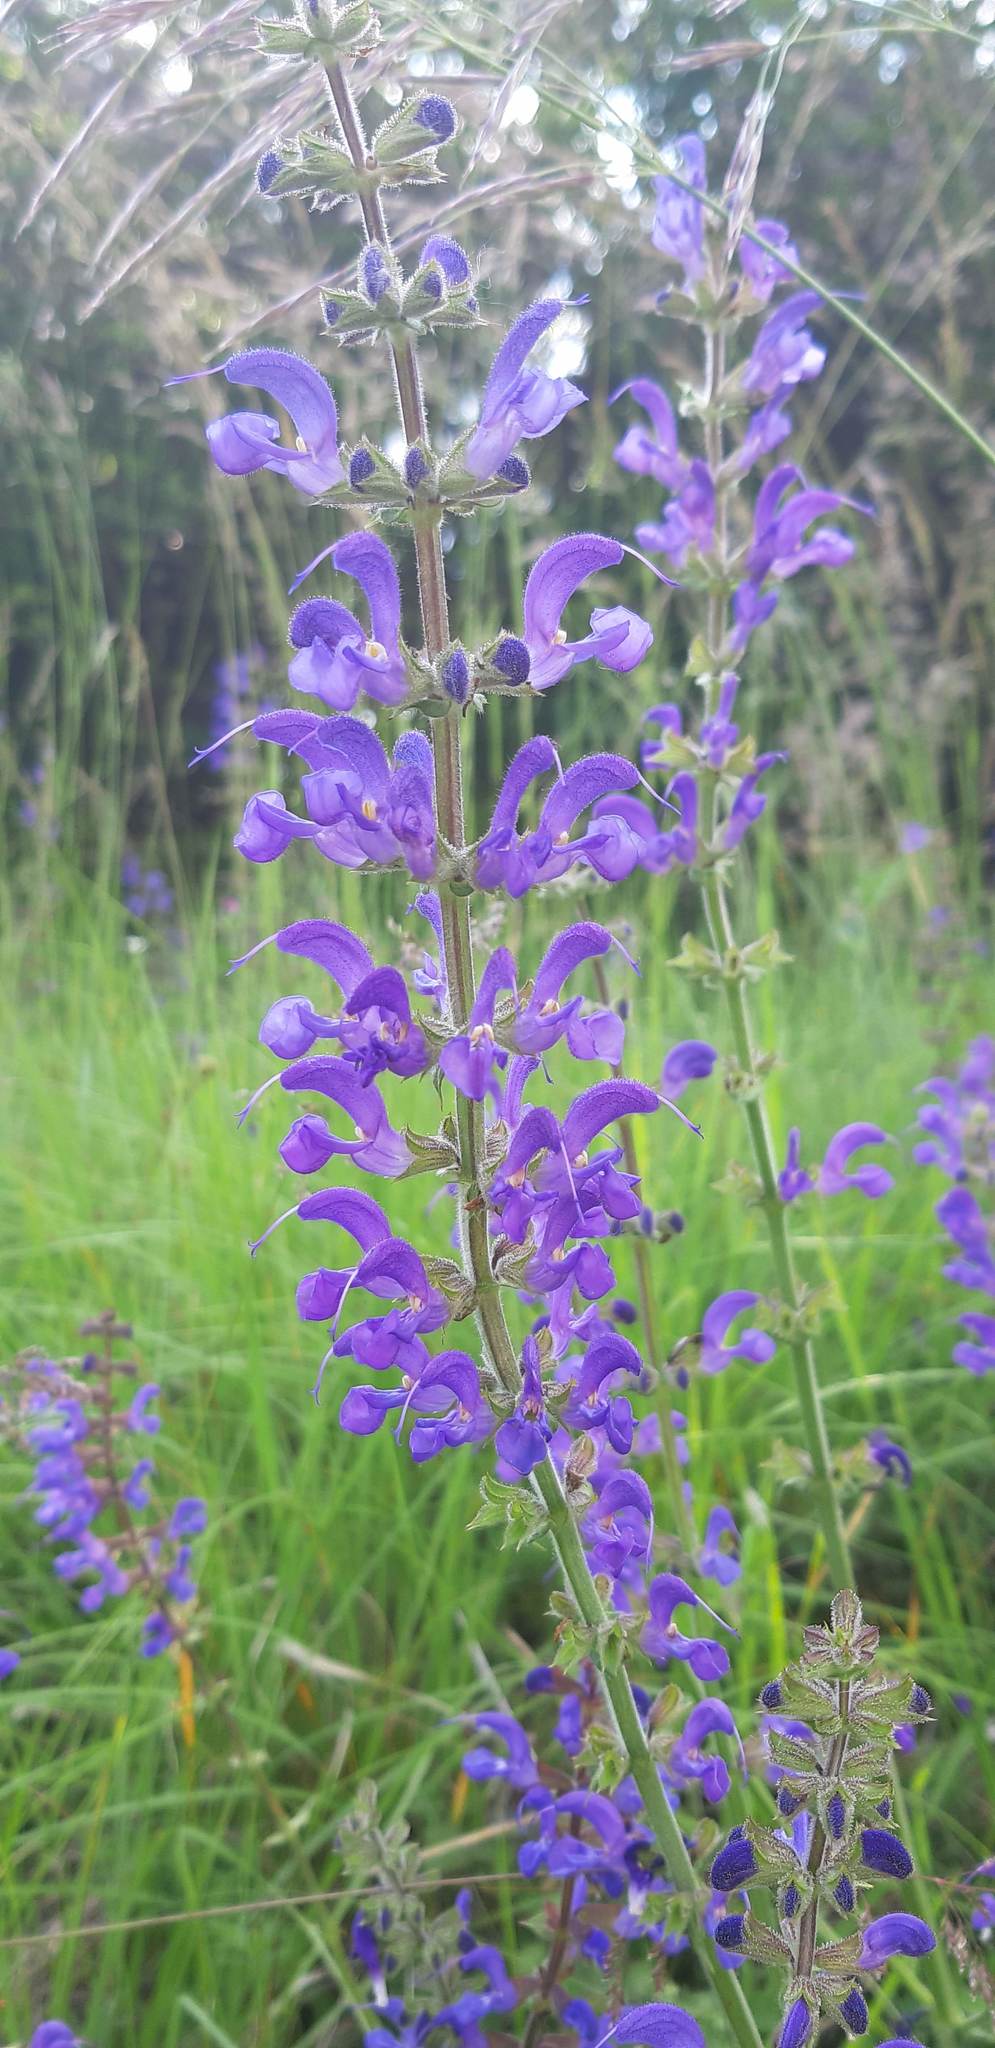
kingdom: Plantae
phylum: Tracheophyta
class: Magnoliopsida
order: Lamiales
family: Lamiaceae
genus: Salvia
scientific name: Salvia pratensis
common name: Meadow sage
